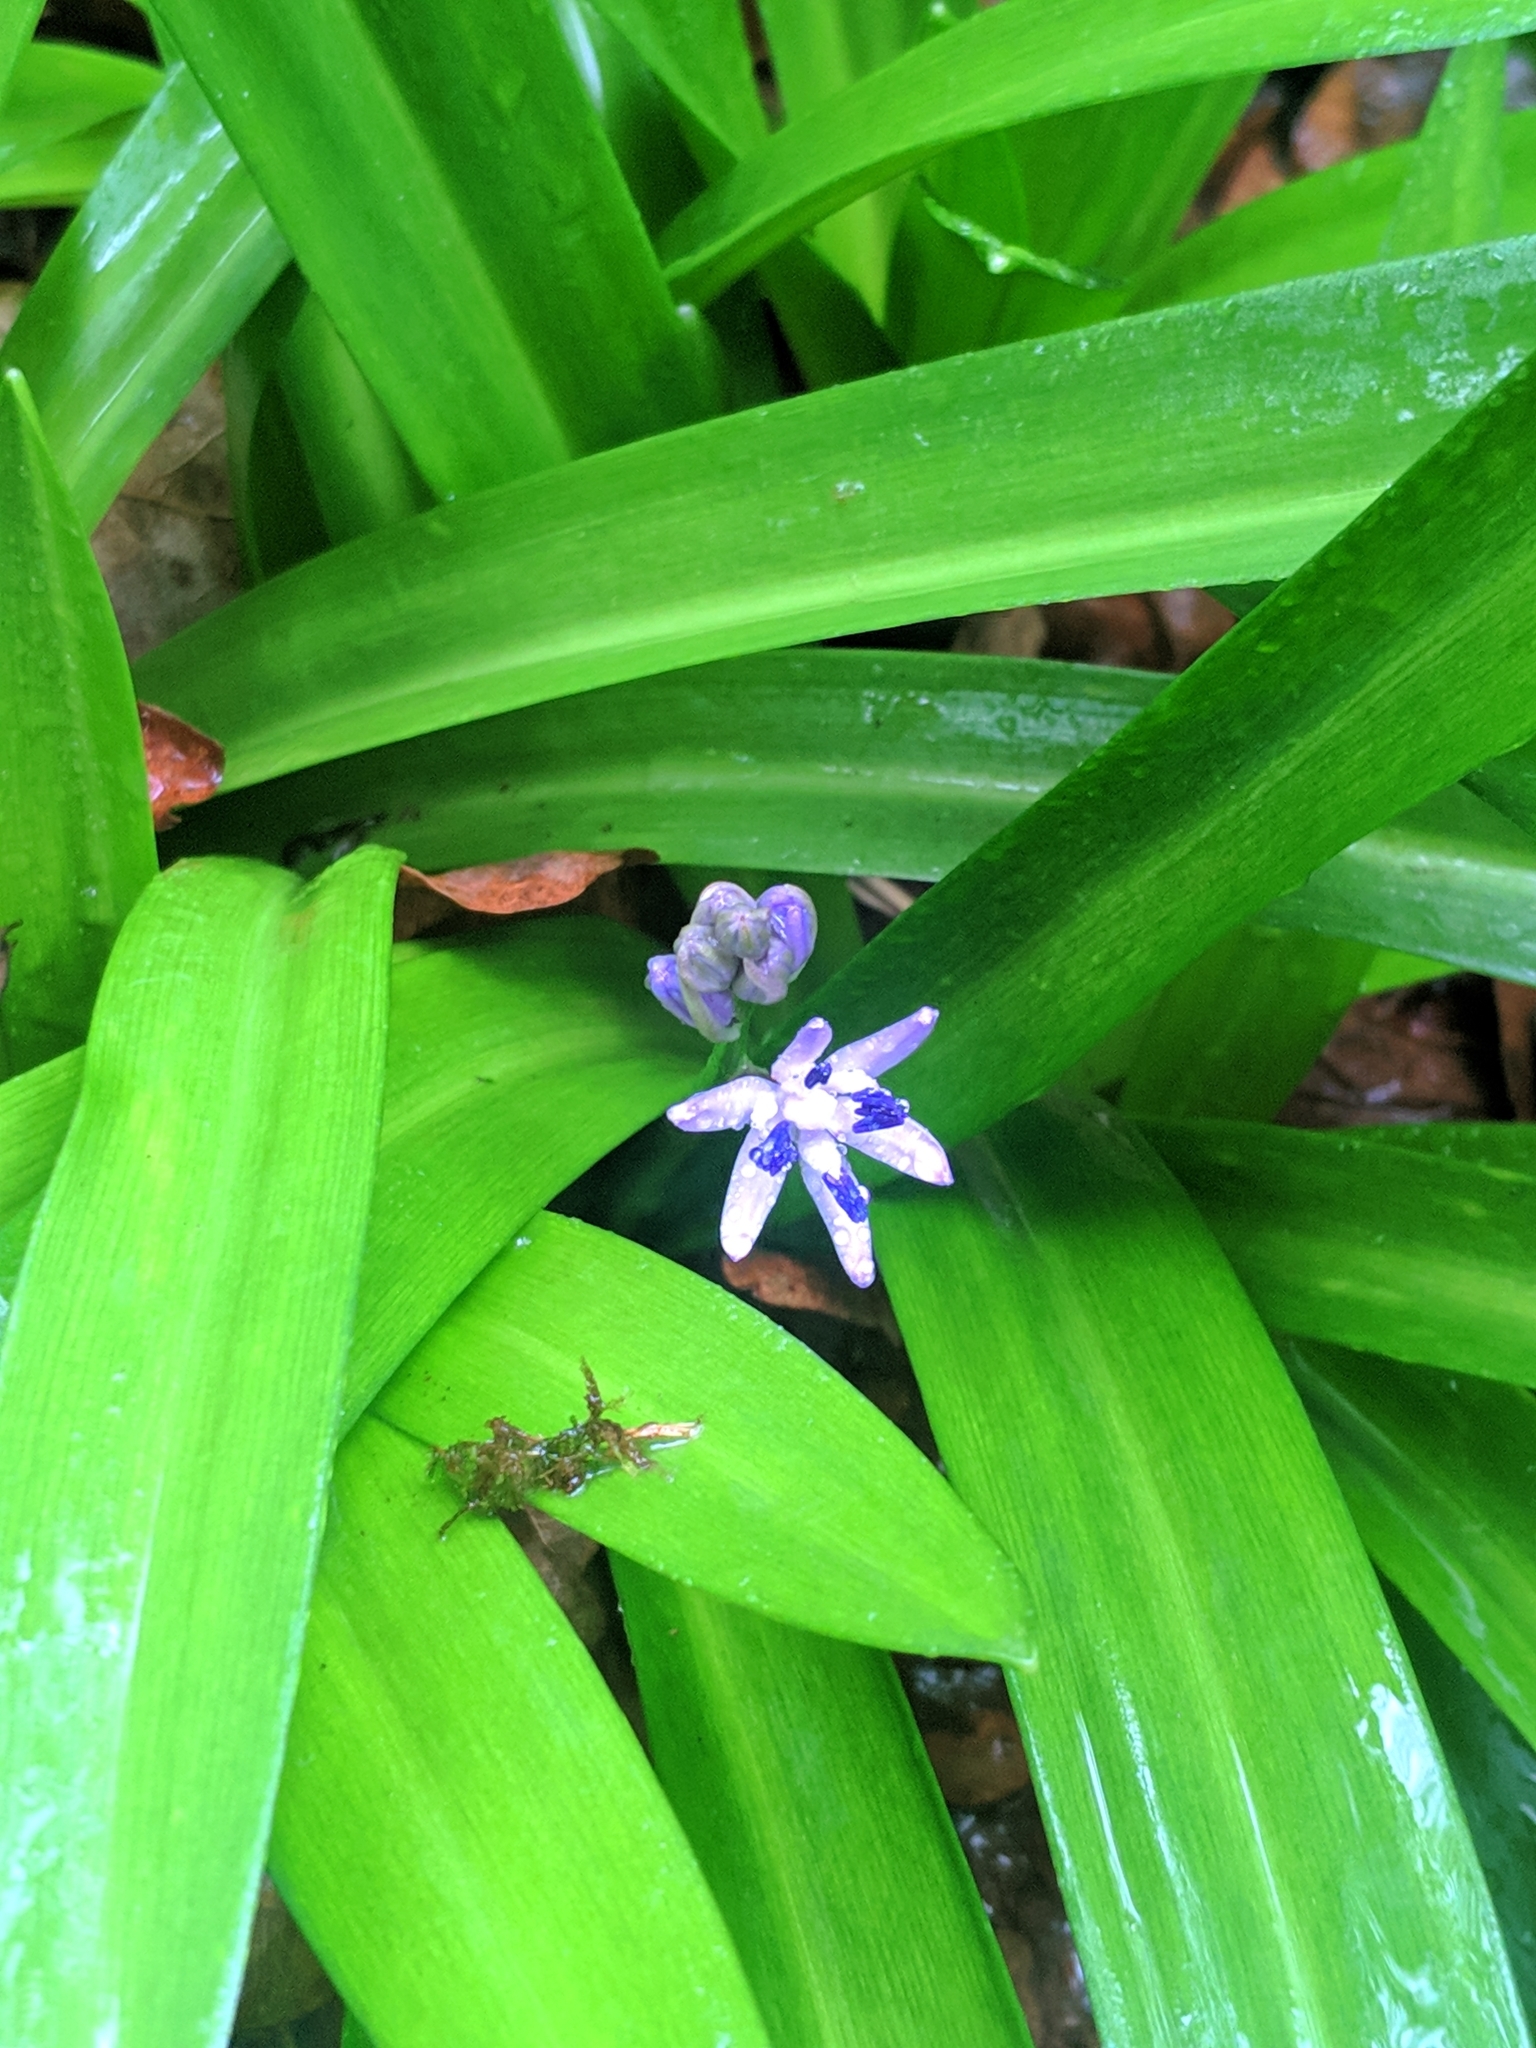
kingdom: Plantae
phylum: Tracheophyta
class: Liliopsida
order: Asparagales
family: Asparagaceae
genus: Scilla
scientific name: Scilla lilio-hyacinthus
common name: Pyrenean squill
